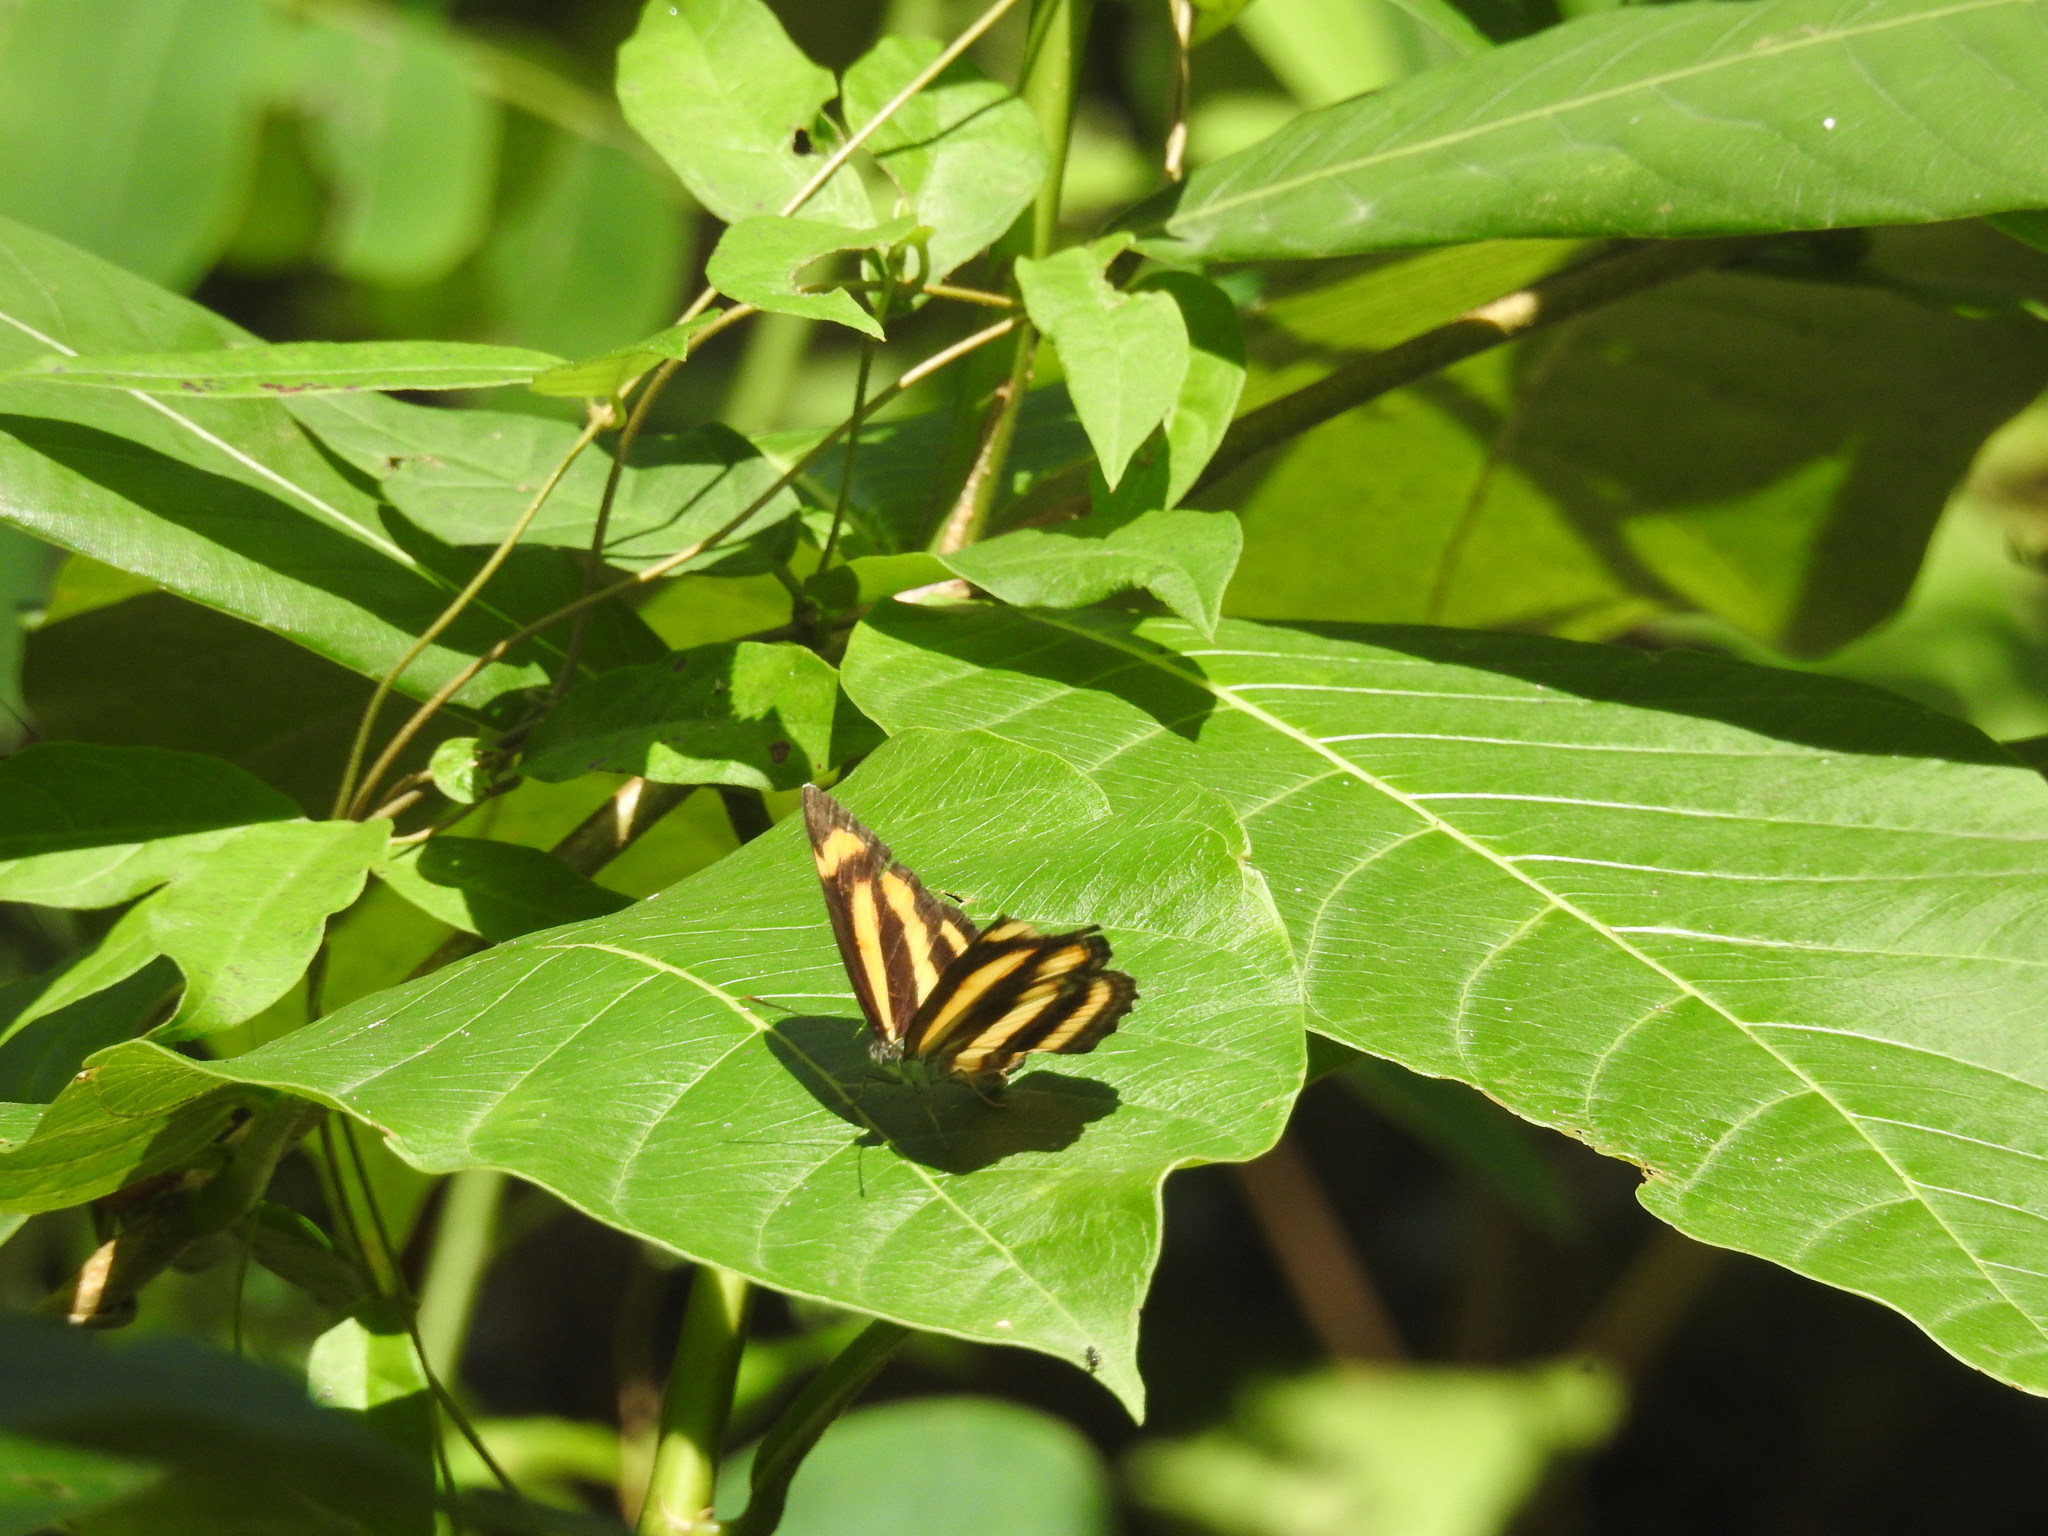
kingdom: Animalia
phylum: Arthropoda
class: Insecta
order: Lepidoptera
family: Nymphalidae
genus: Pantoporia
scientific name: Pantoporia hordonia
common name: Common lascar
